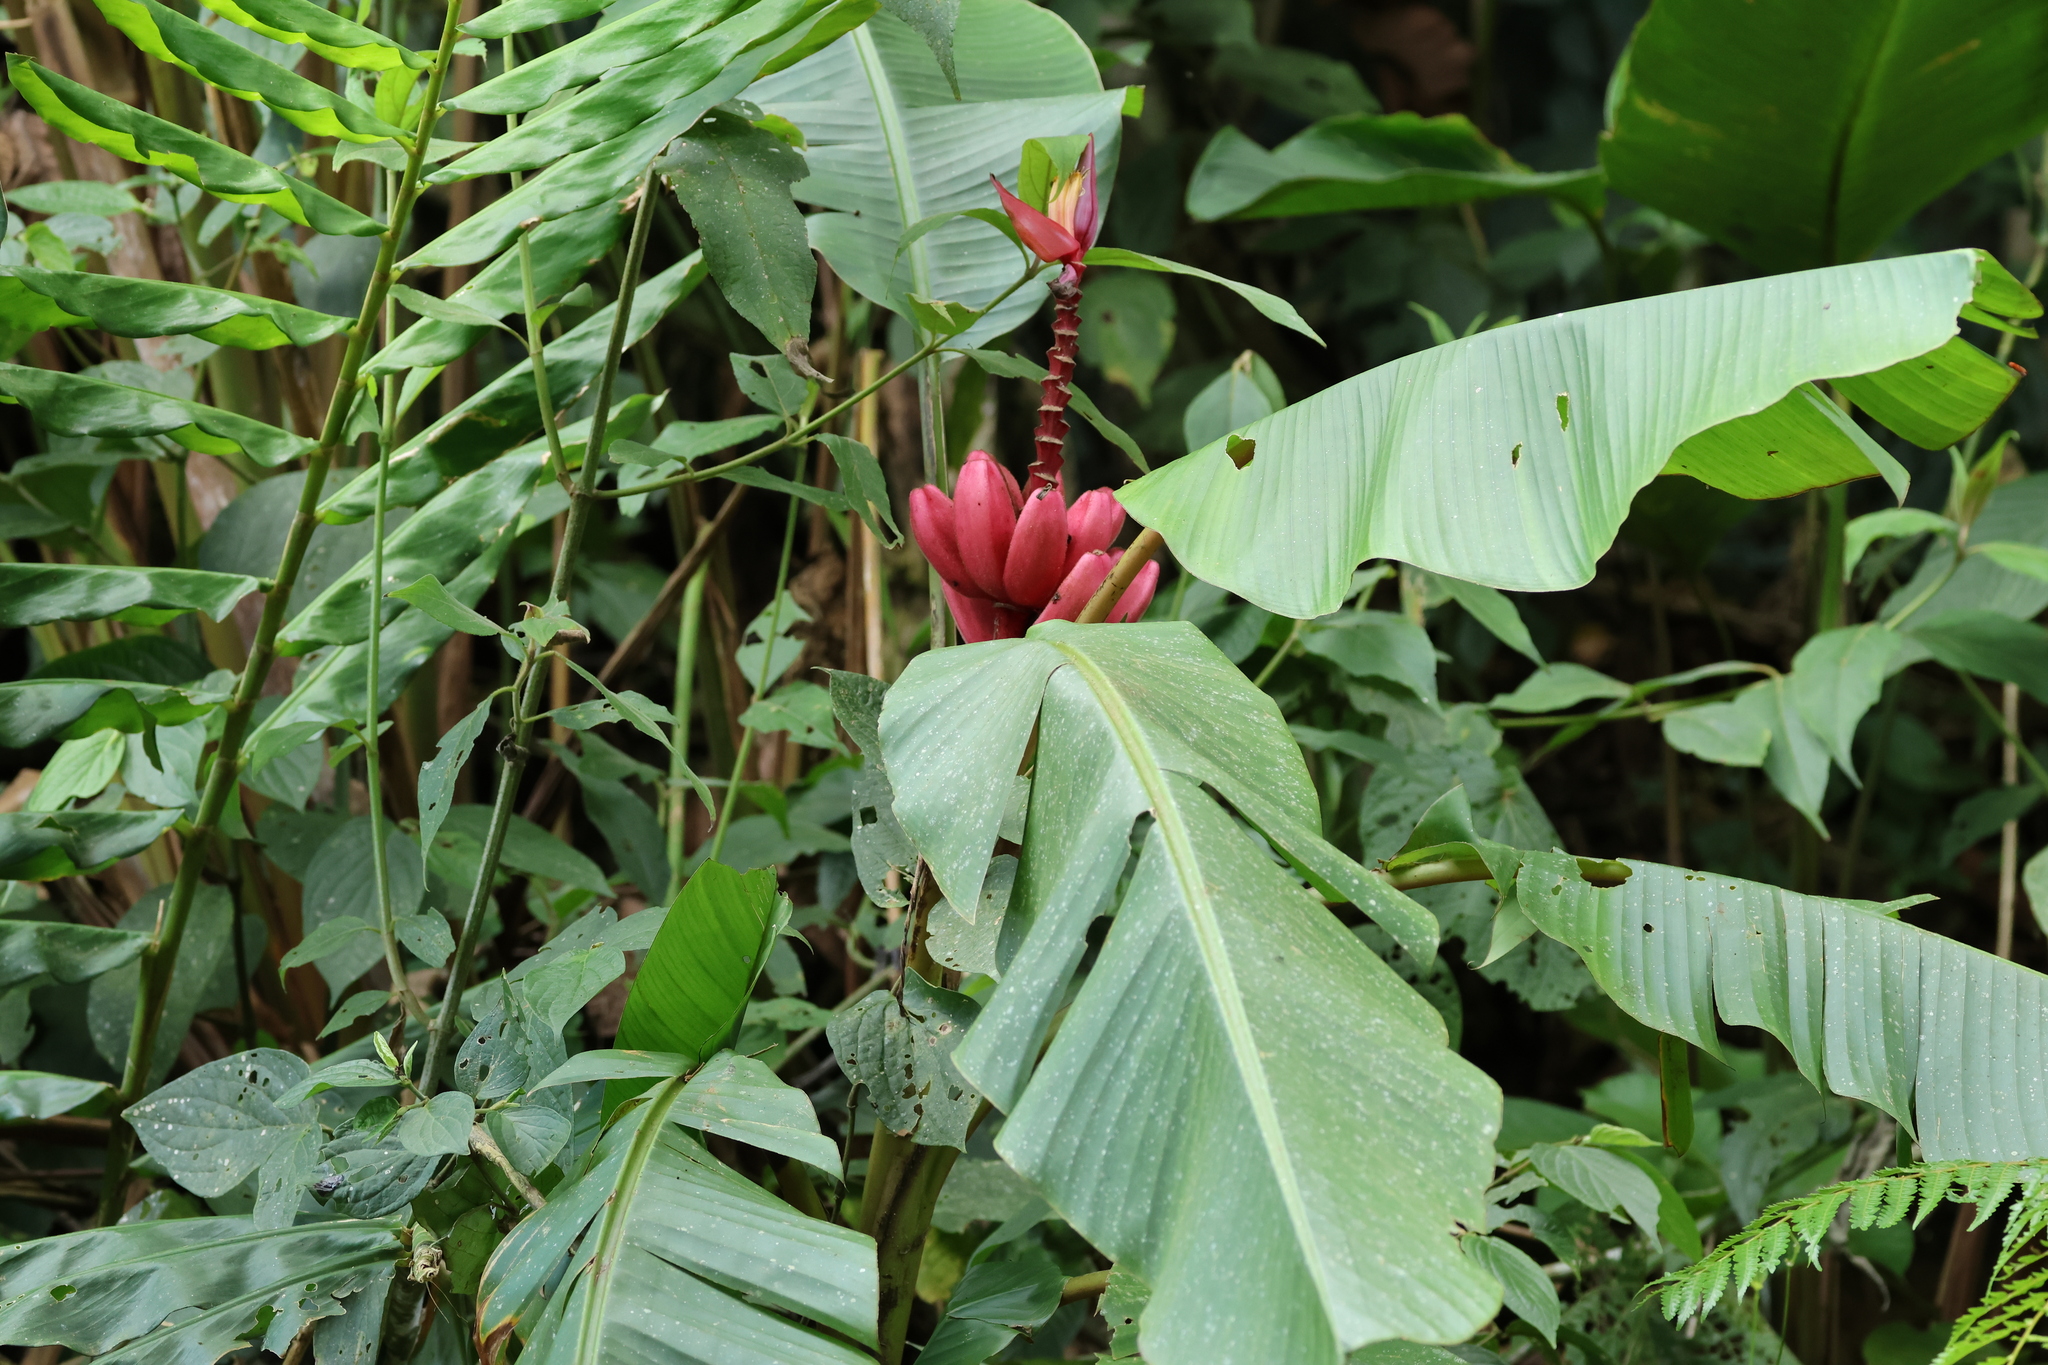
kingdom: Plantae
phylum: Tracheophyta
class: Liliopsida
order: Zingiberales
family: Musaceae
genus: Musa
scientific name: Musa velutina
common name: Pink velvet banana
